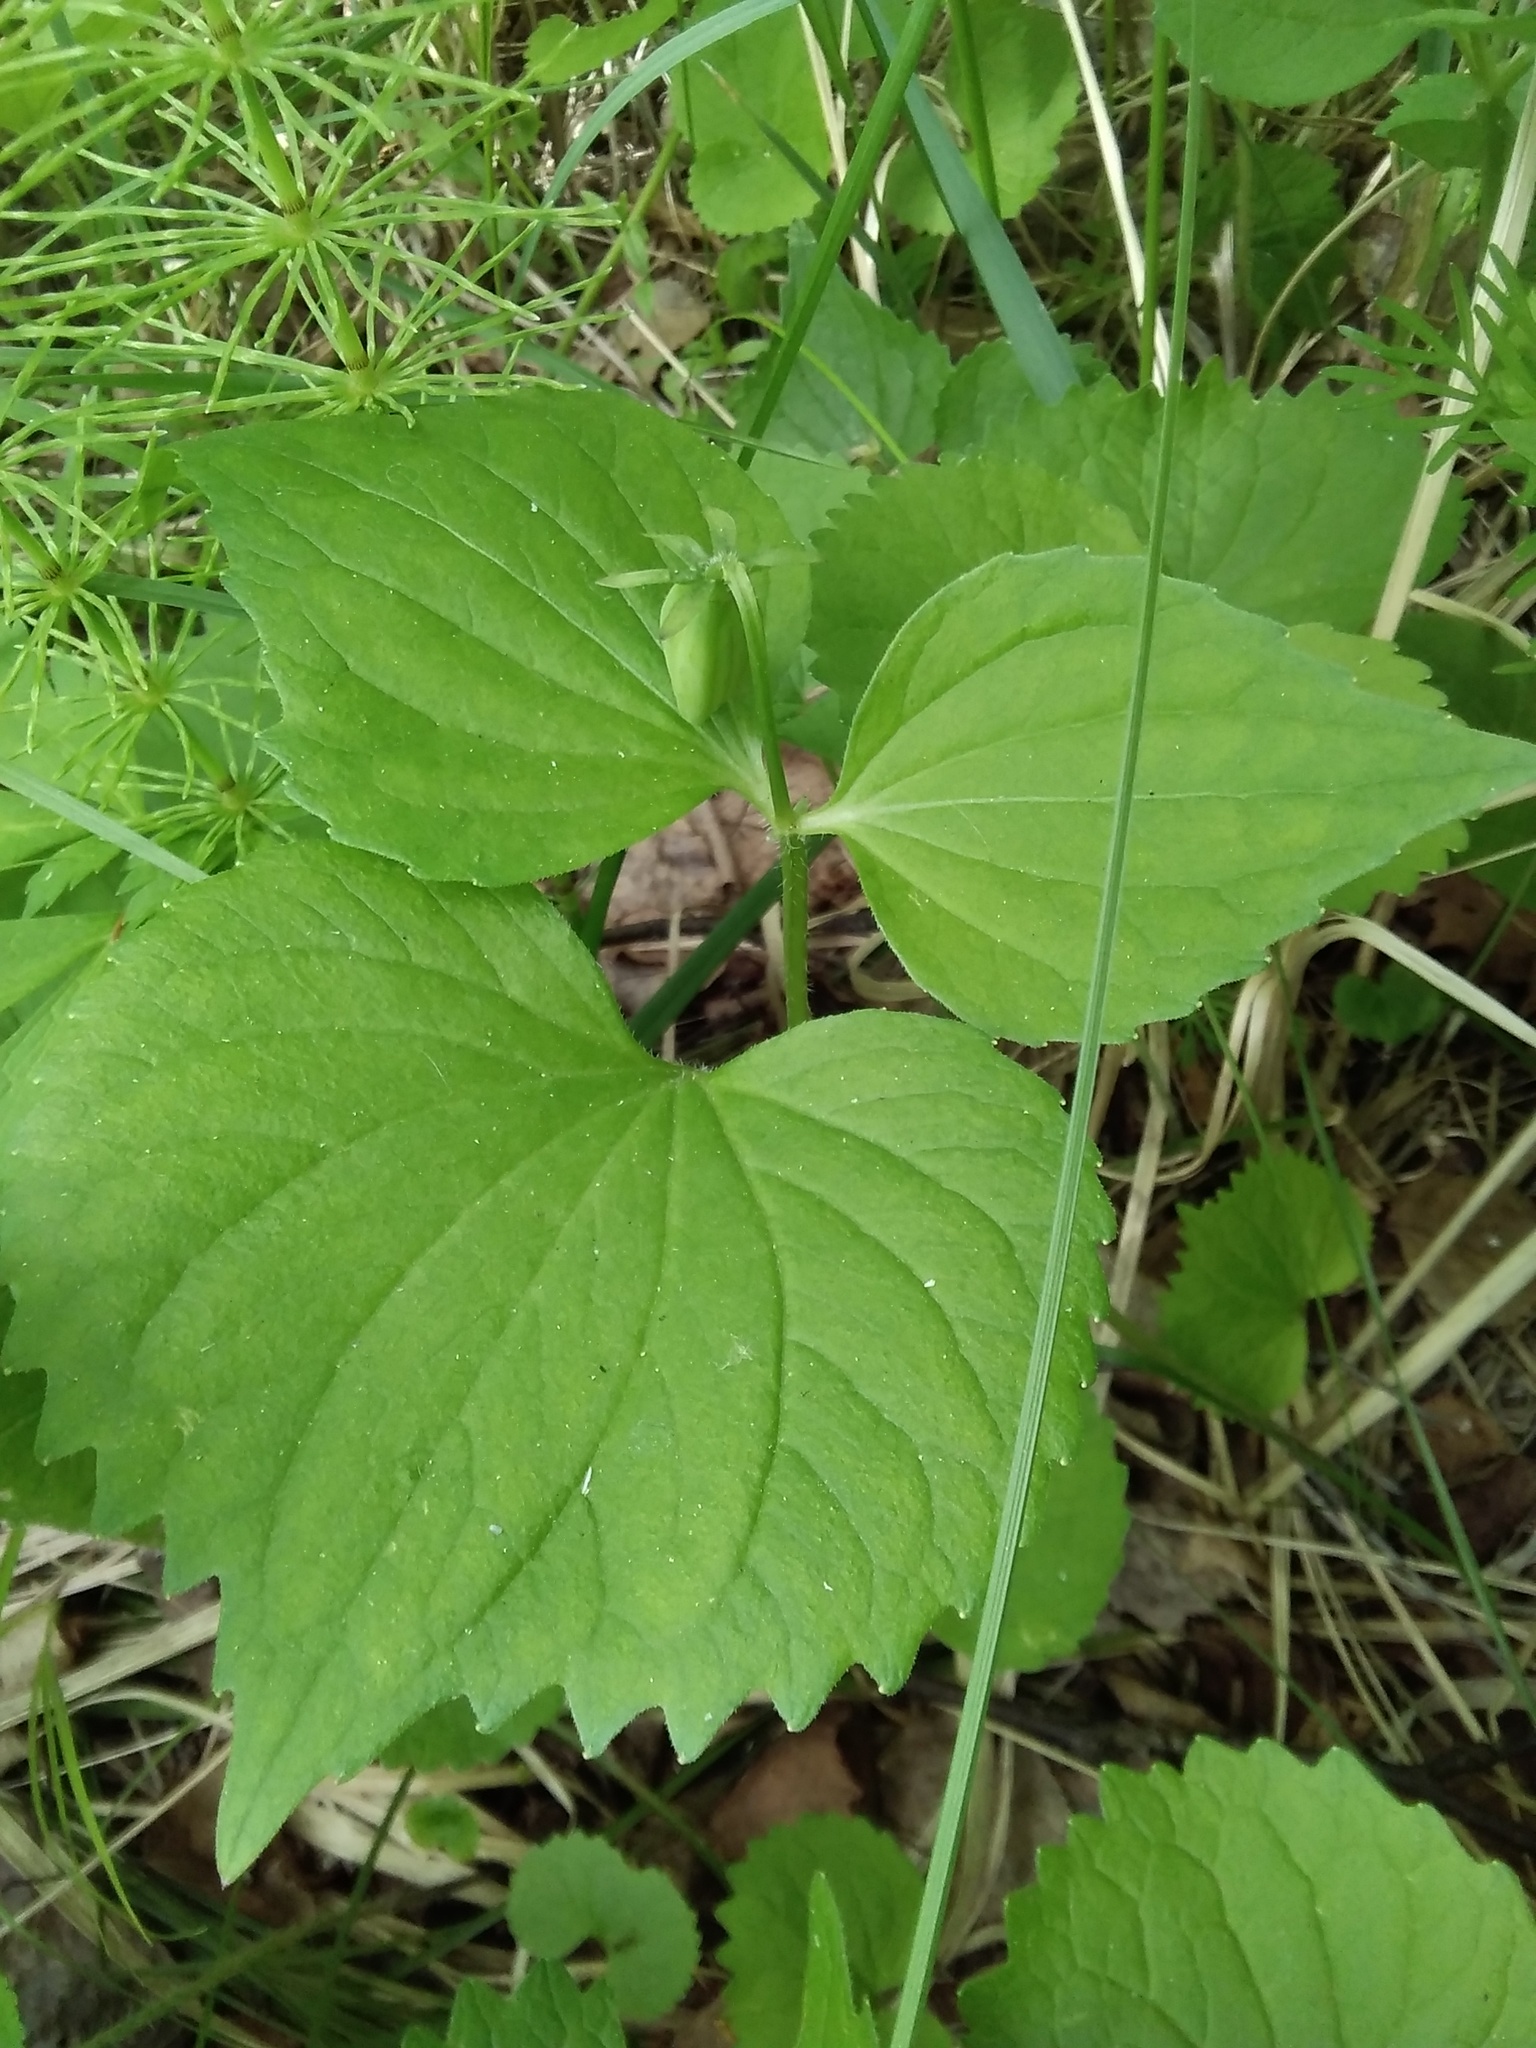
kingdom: Plantae
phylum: Tracheophyta
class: Magnoliopsida
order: Malpighiales
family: Violaceae
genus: Viola
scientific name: Viola uniflora
